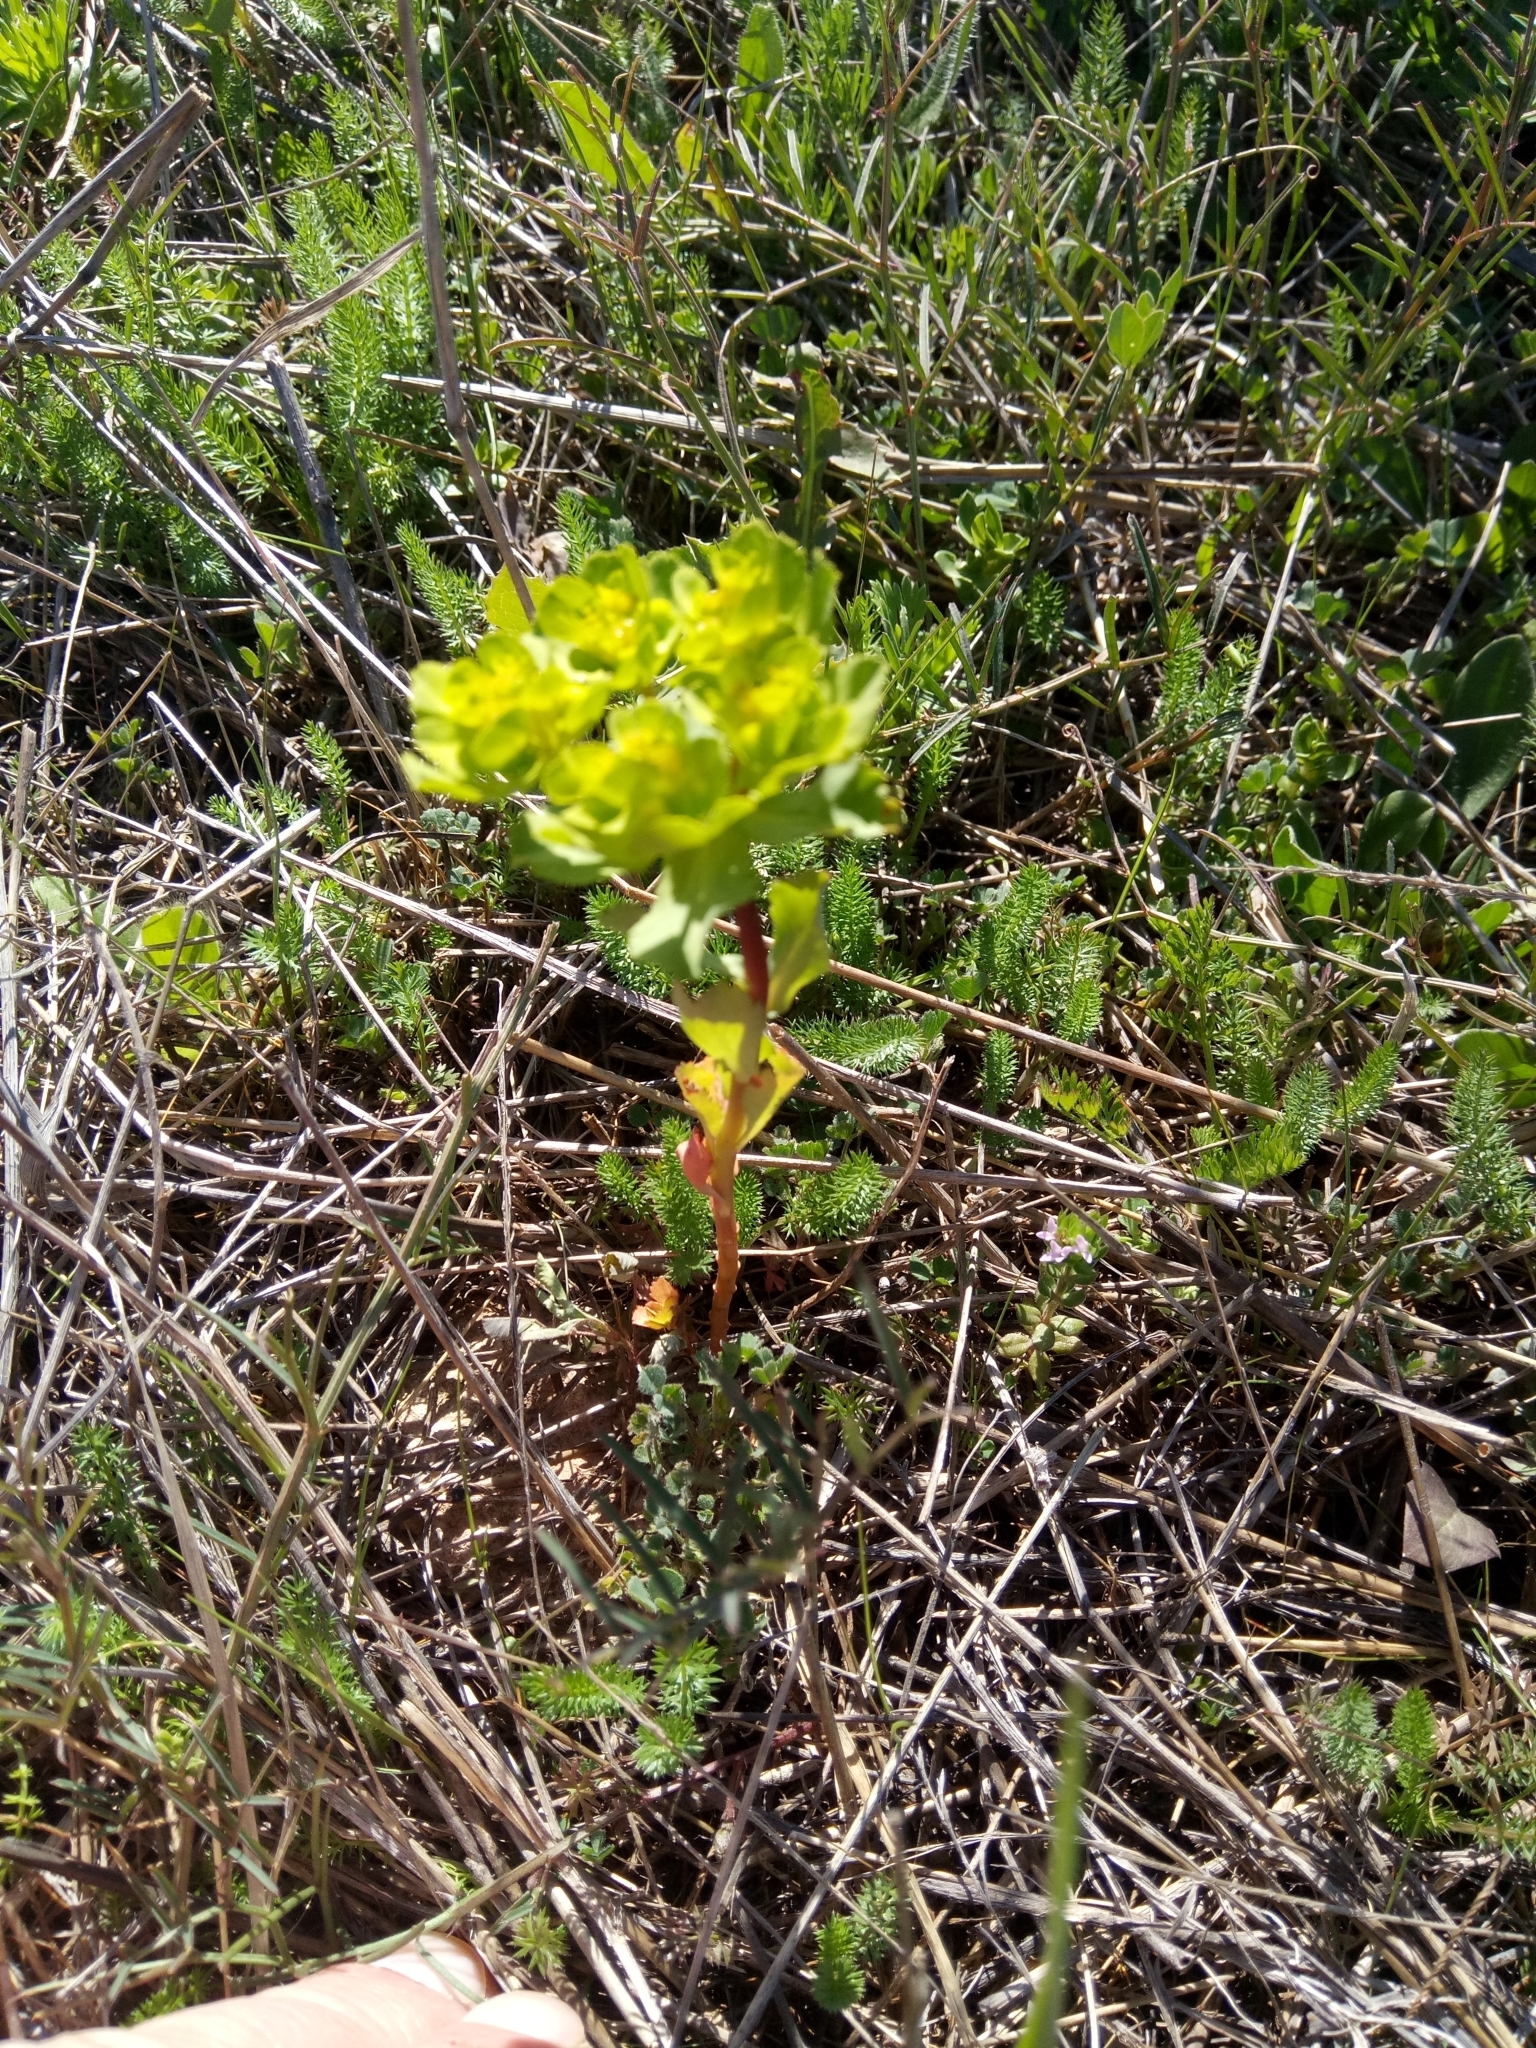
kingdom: Plantae
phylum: Tracheophyta
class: Magnoliopsida
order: Malpighiales
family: Euphorbiaceae
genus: Euphorbia
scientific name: Euphorbia helioscopia
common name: Sun spurge
